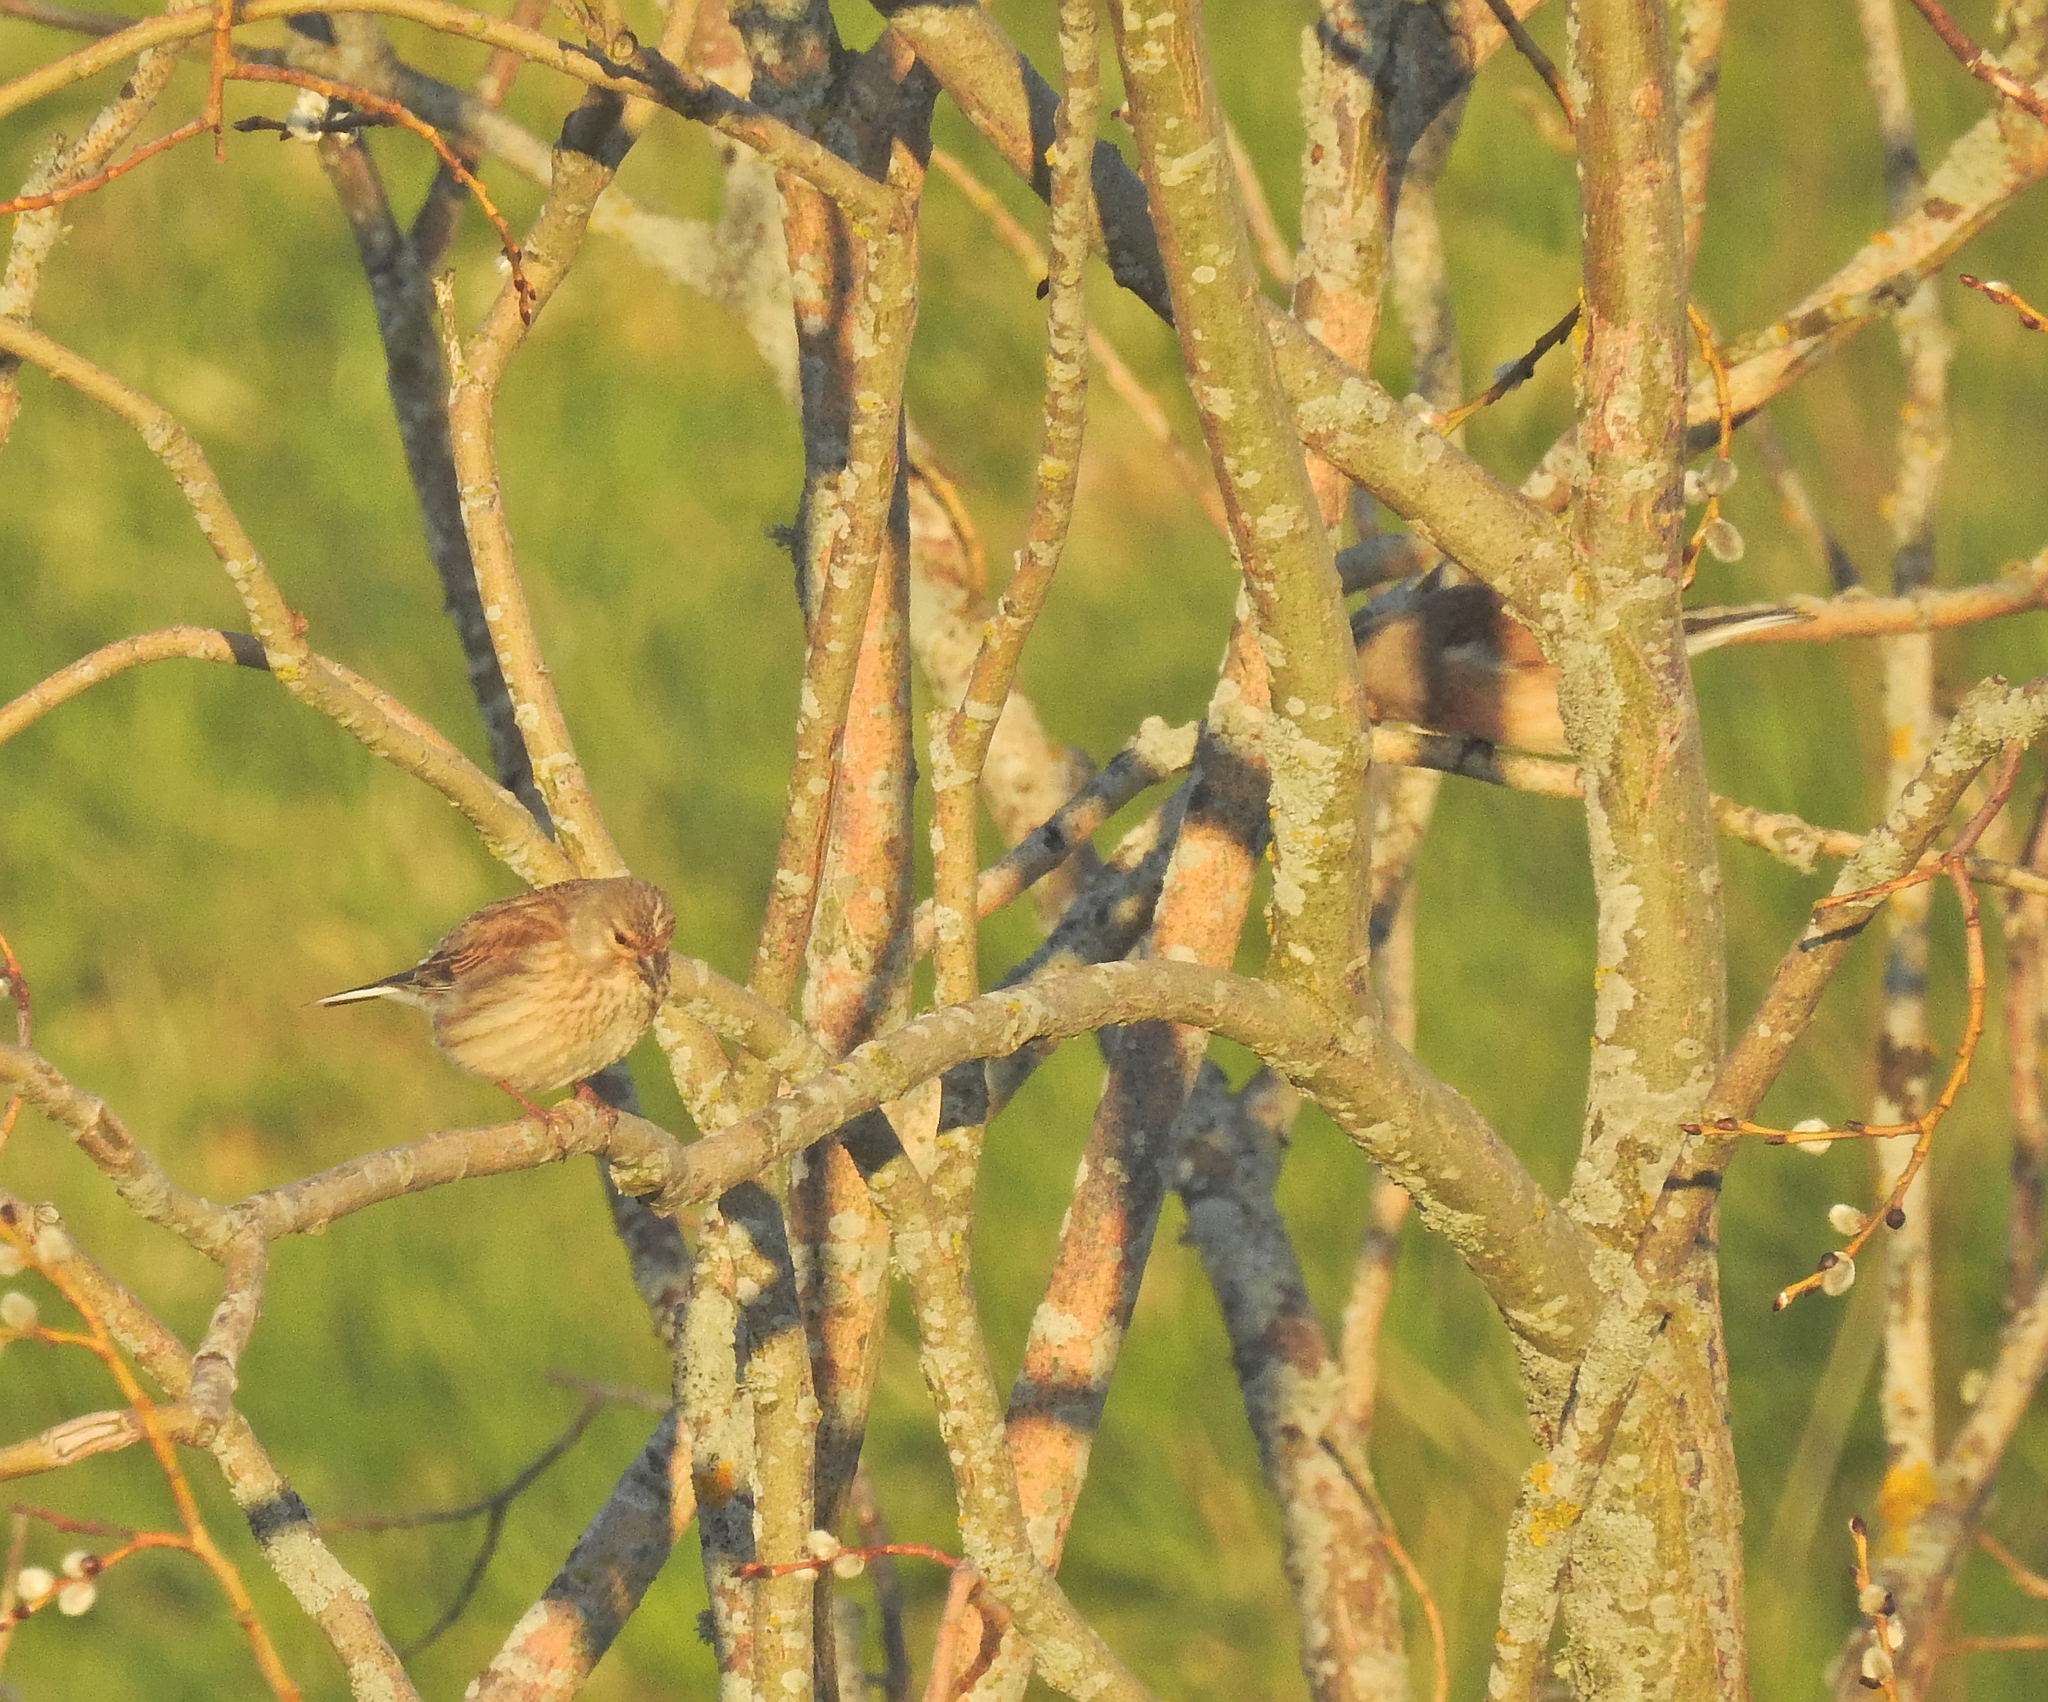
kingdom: Animalia
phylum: Chordata
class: Aves
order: Passeriformes
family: Fringillidae
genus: Linaria
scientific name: Linaria cannabina
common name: Common linnet
